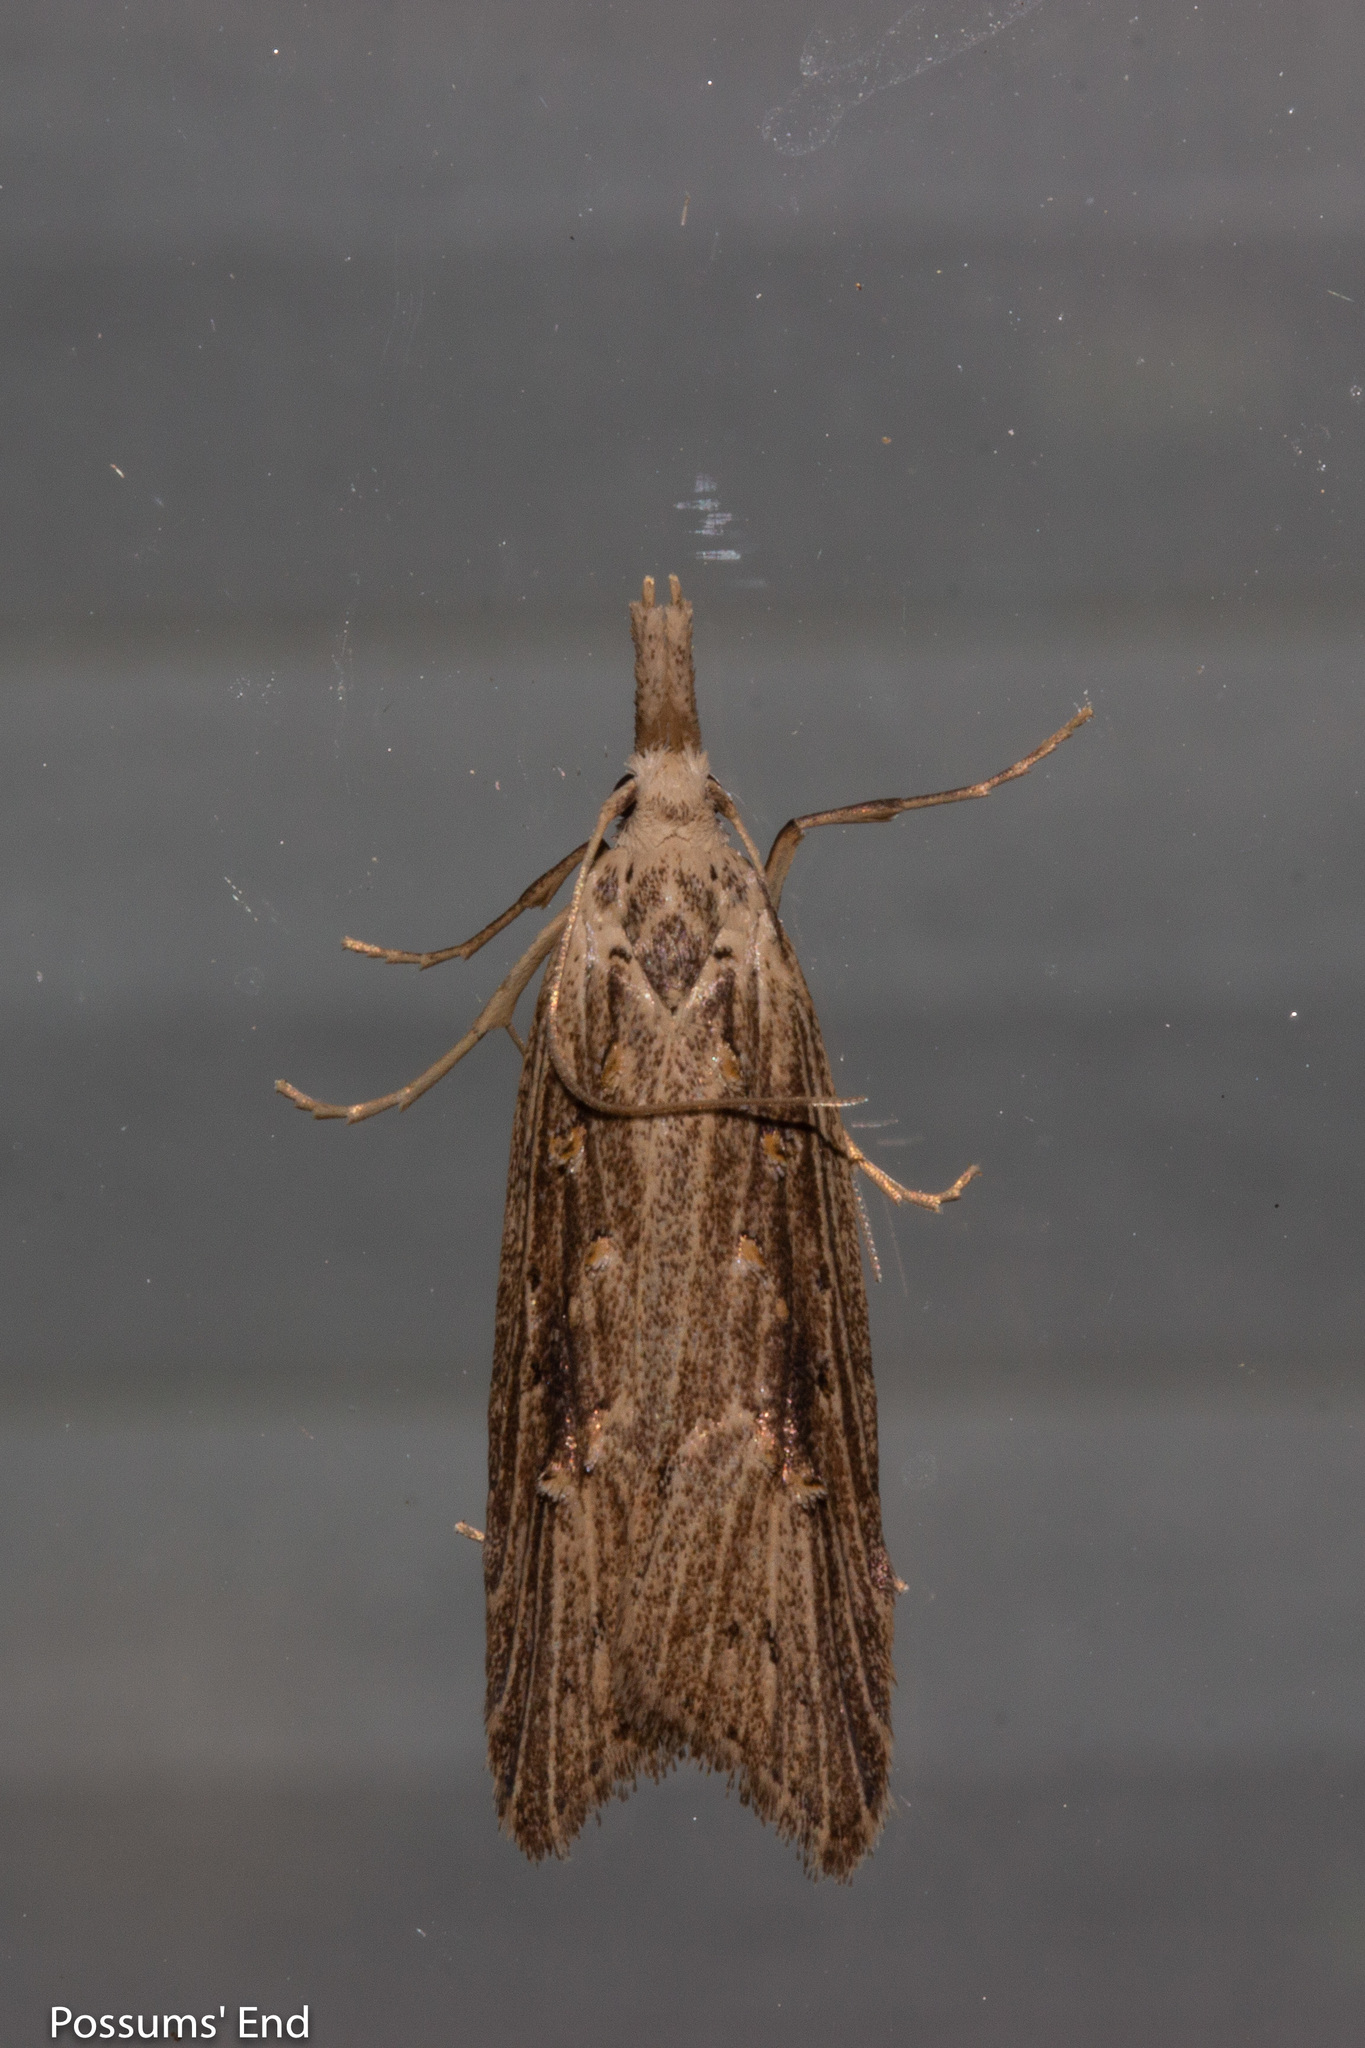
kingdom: Animalia
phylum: Arthropoda
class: Insecta
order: Lepidoptera
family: Carposinidae
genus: Carposina
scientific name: Carposina Heterocrossa exochana
